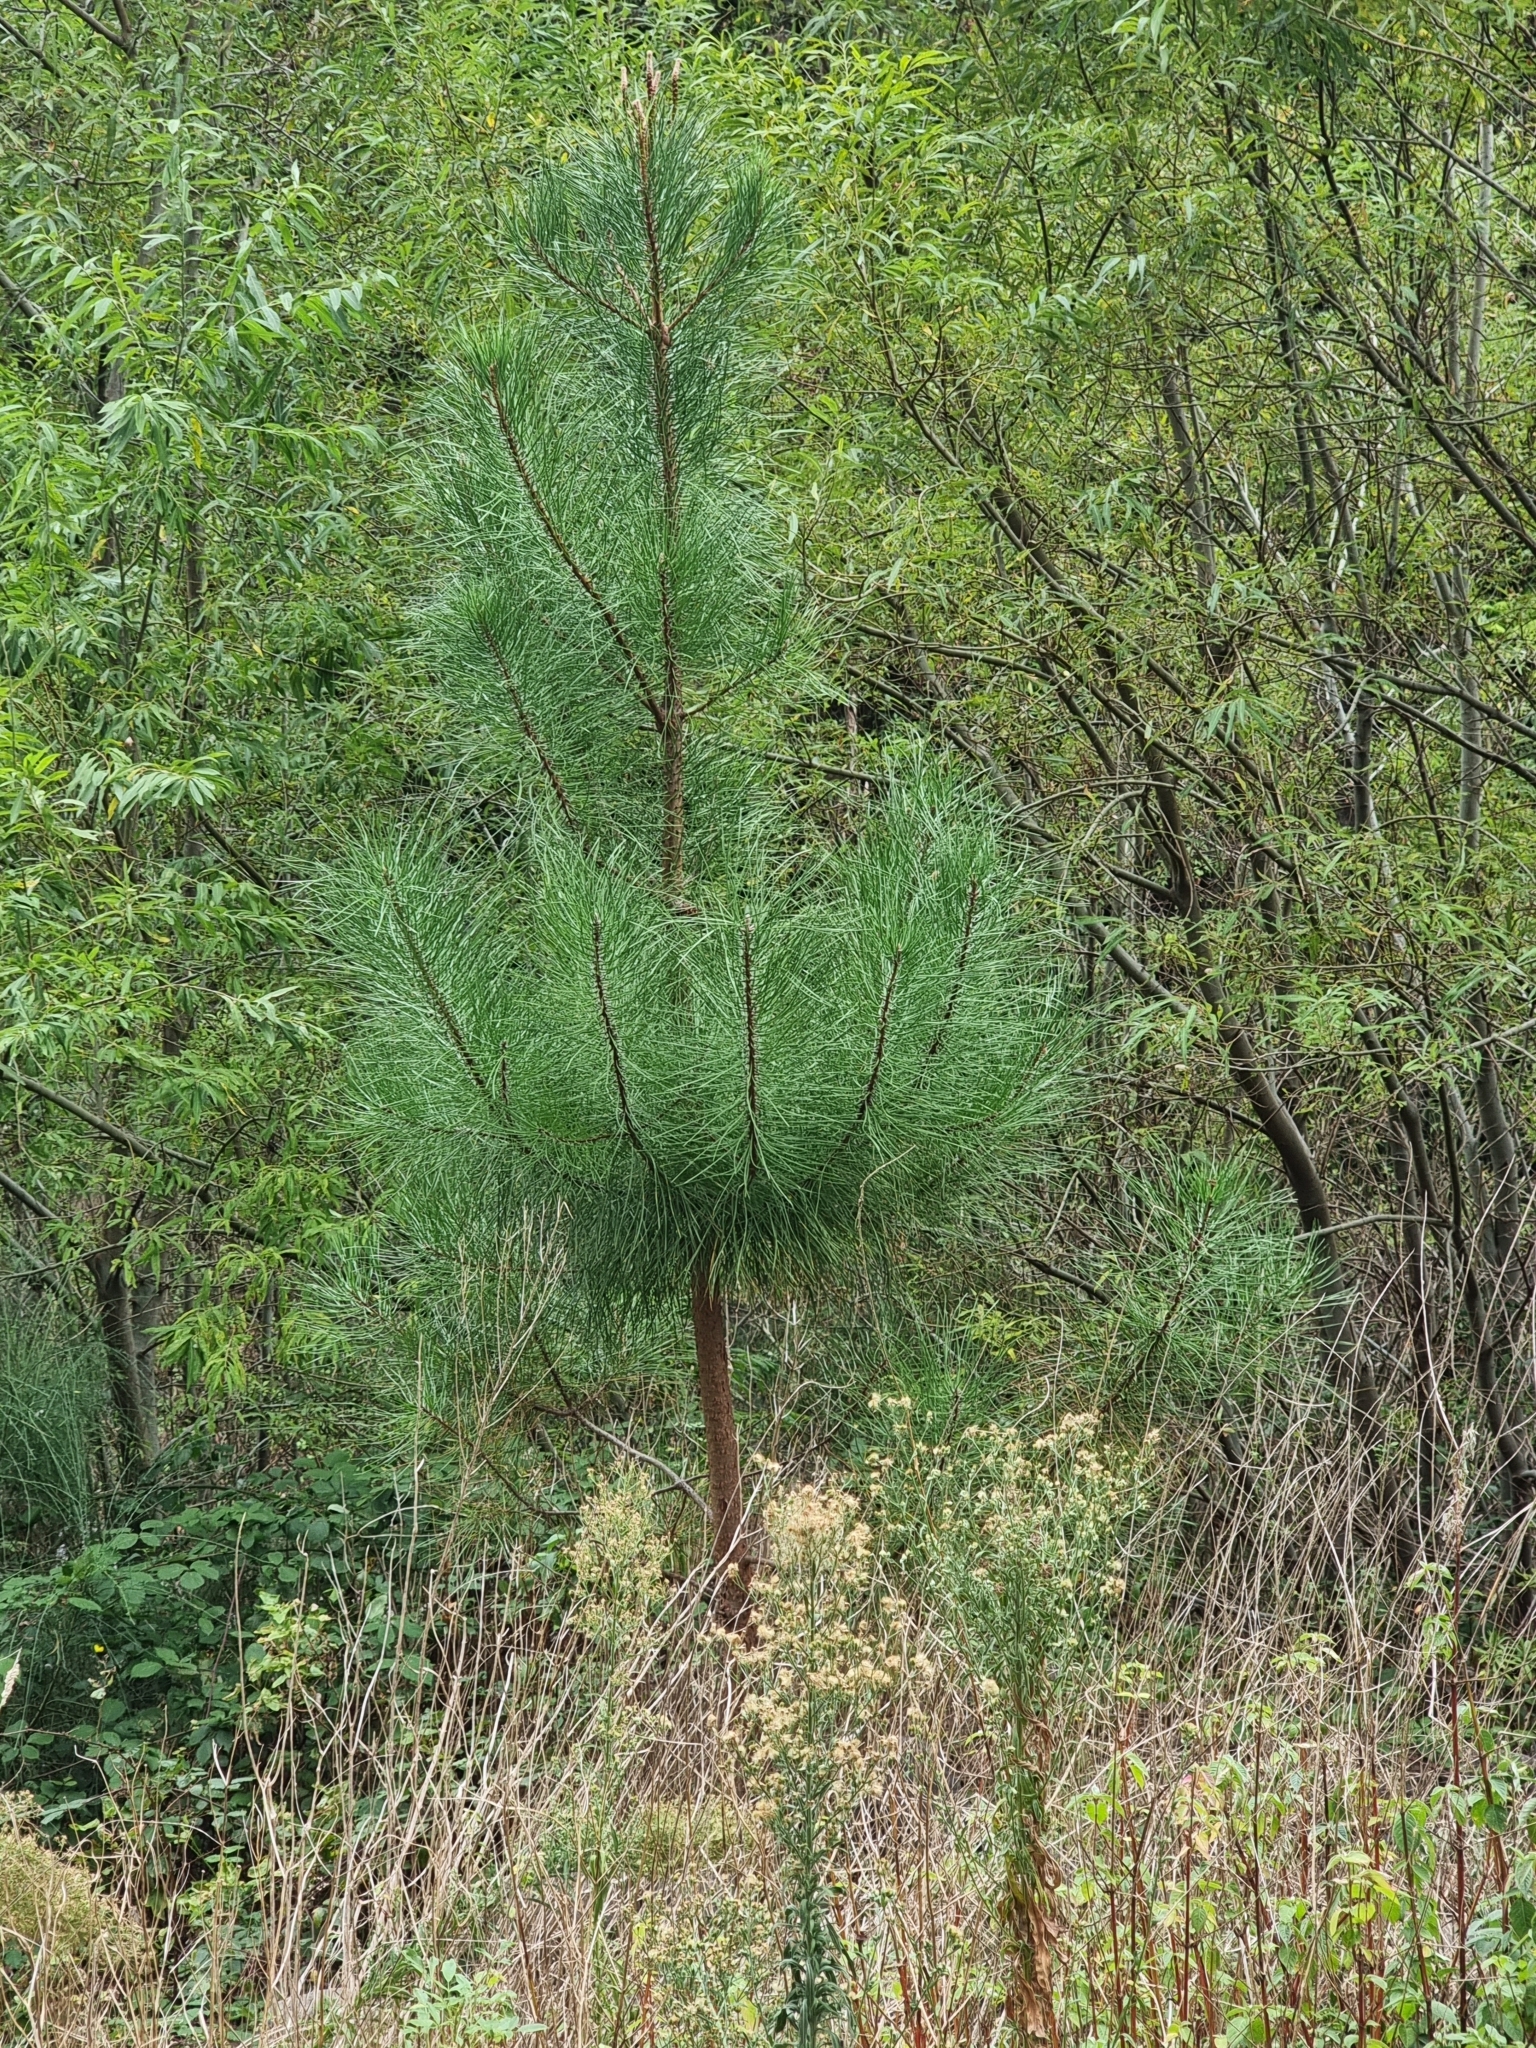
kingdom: Plantae
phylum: Tracheophyta
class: Pinopsida
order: Pinales
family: Pinaceae
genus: Pinus
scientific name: Pinus pinaster
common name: Maritime pine
